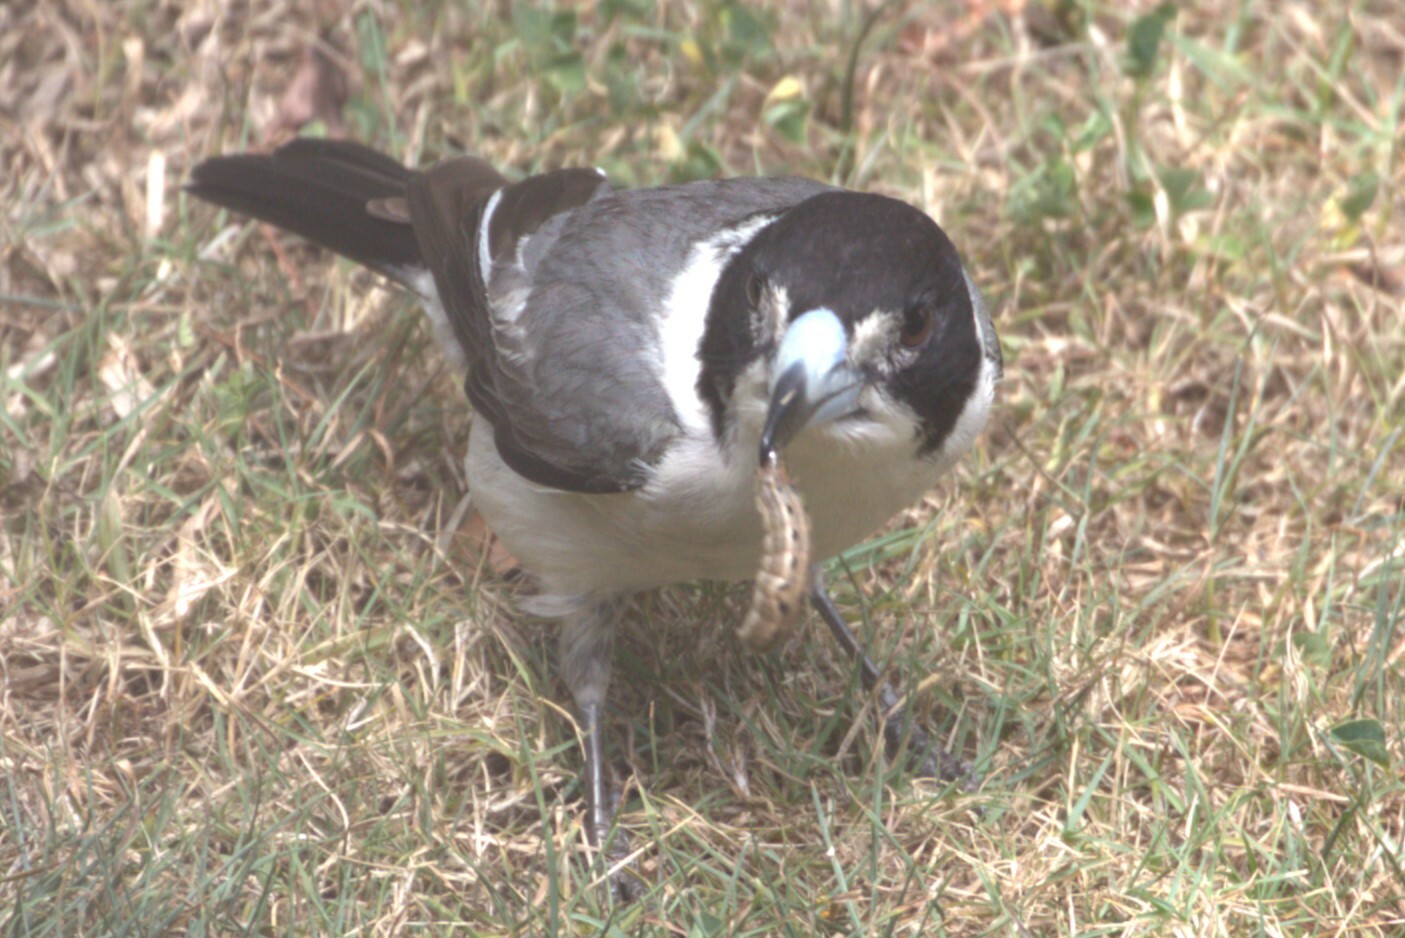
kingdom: Animalia
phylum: Chordata
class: Aves
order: Passeriformes
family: Cracticidae
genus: Cracticus
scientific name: Cracticus torquatus
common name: Grey butcherbird
